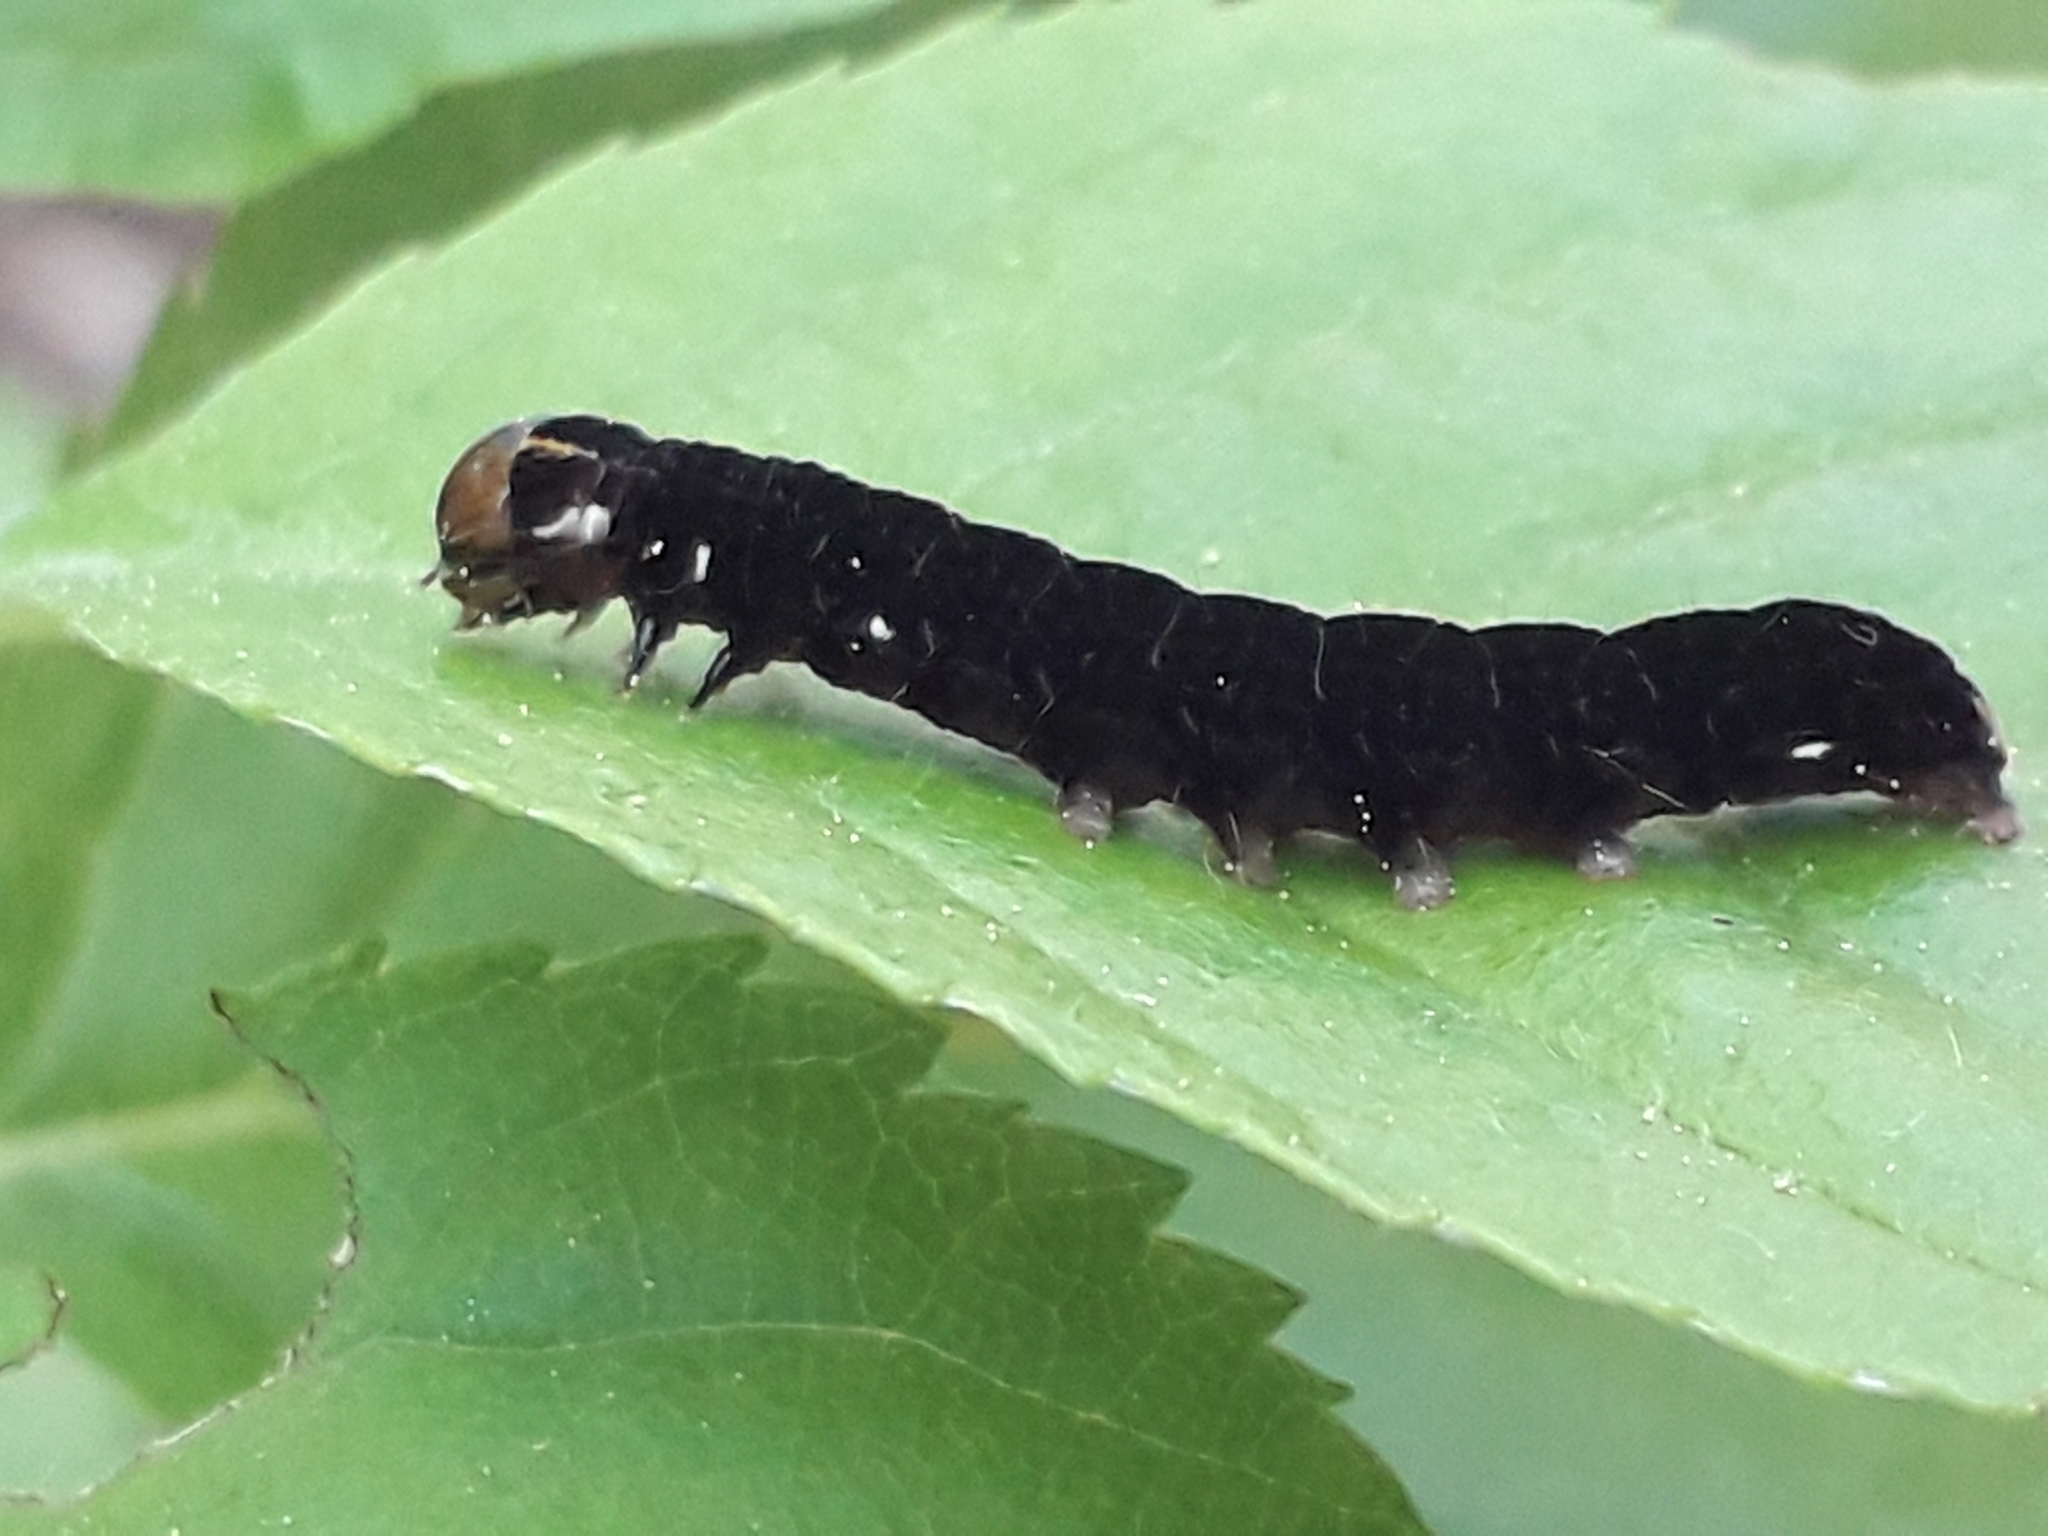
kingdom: Animalia
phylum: Arthropoda
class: Insecta
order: Lepidoptera
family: Noctuidae
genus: Eupsilia
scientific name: Eupsilia transversa
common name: Satellite
